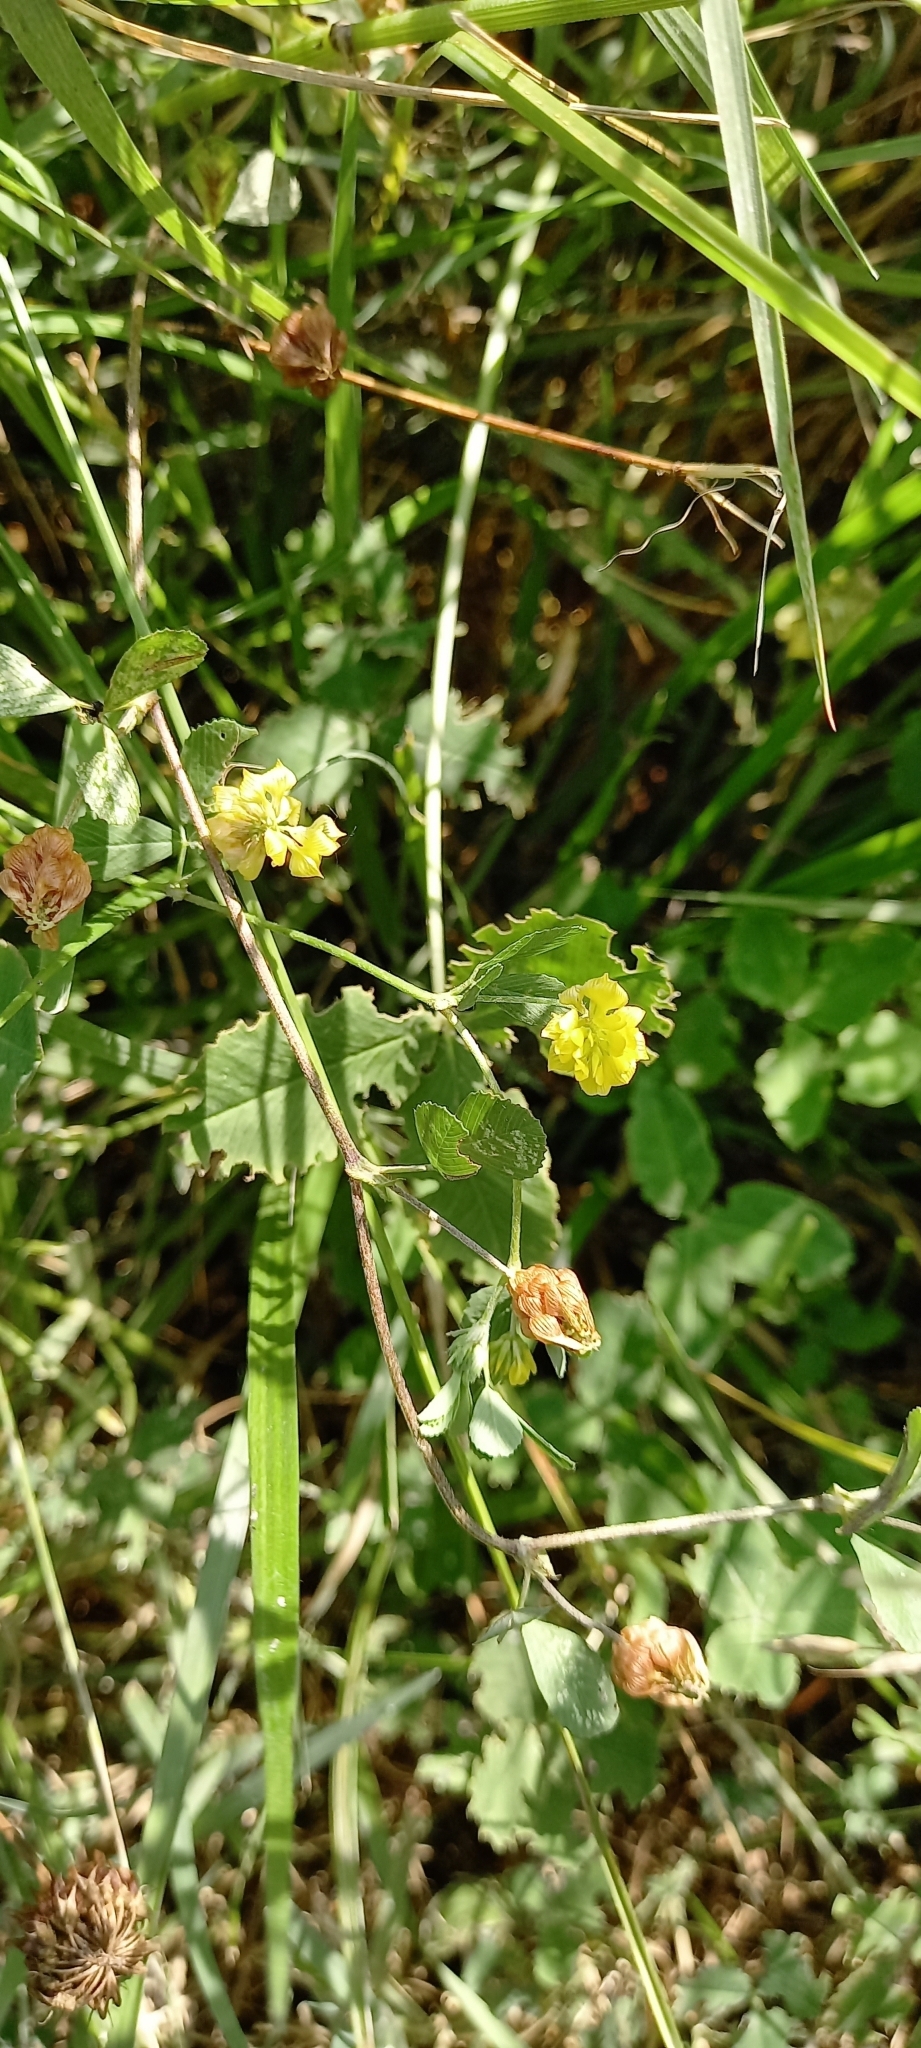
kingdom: Plantae
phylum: Tracheophyta
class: Magnoliopsida
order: Fabales
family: Fabaceae
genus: Trifolium
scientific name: Trifolium campestre
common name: Field clover
